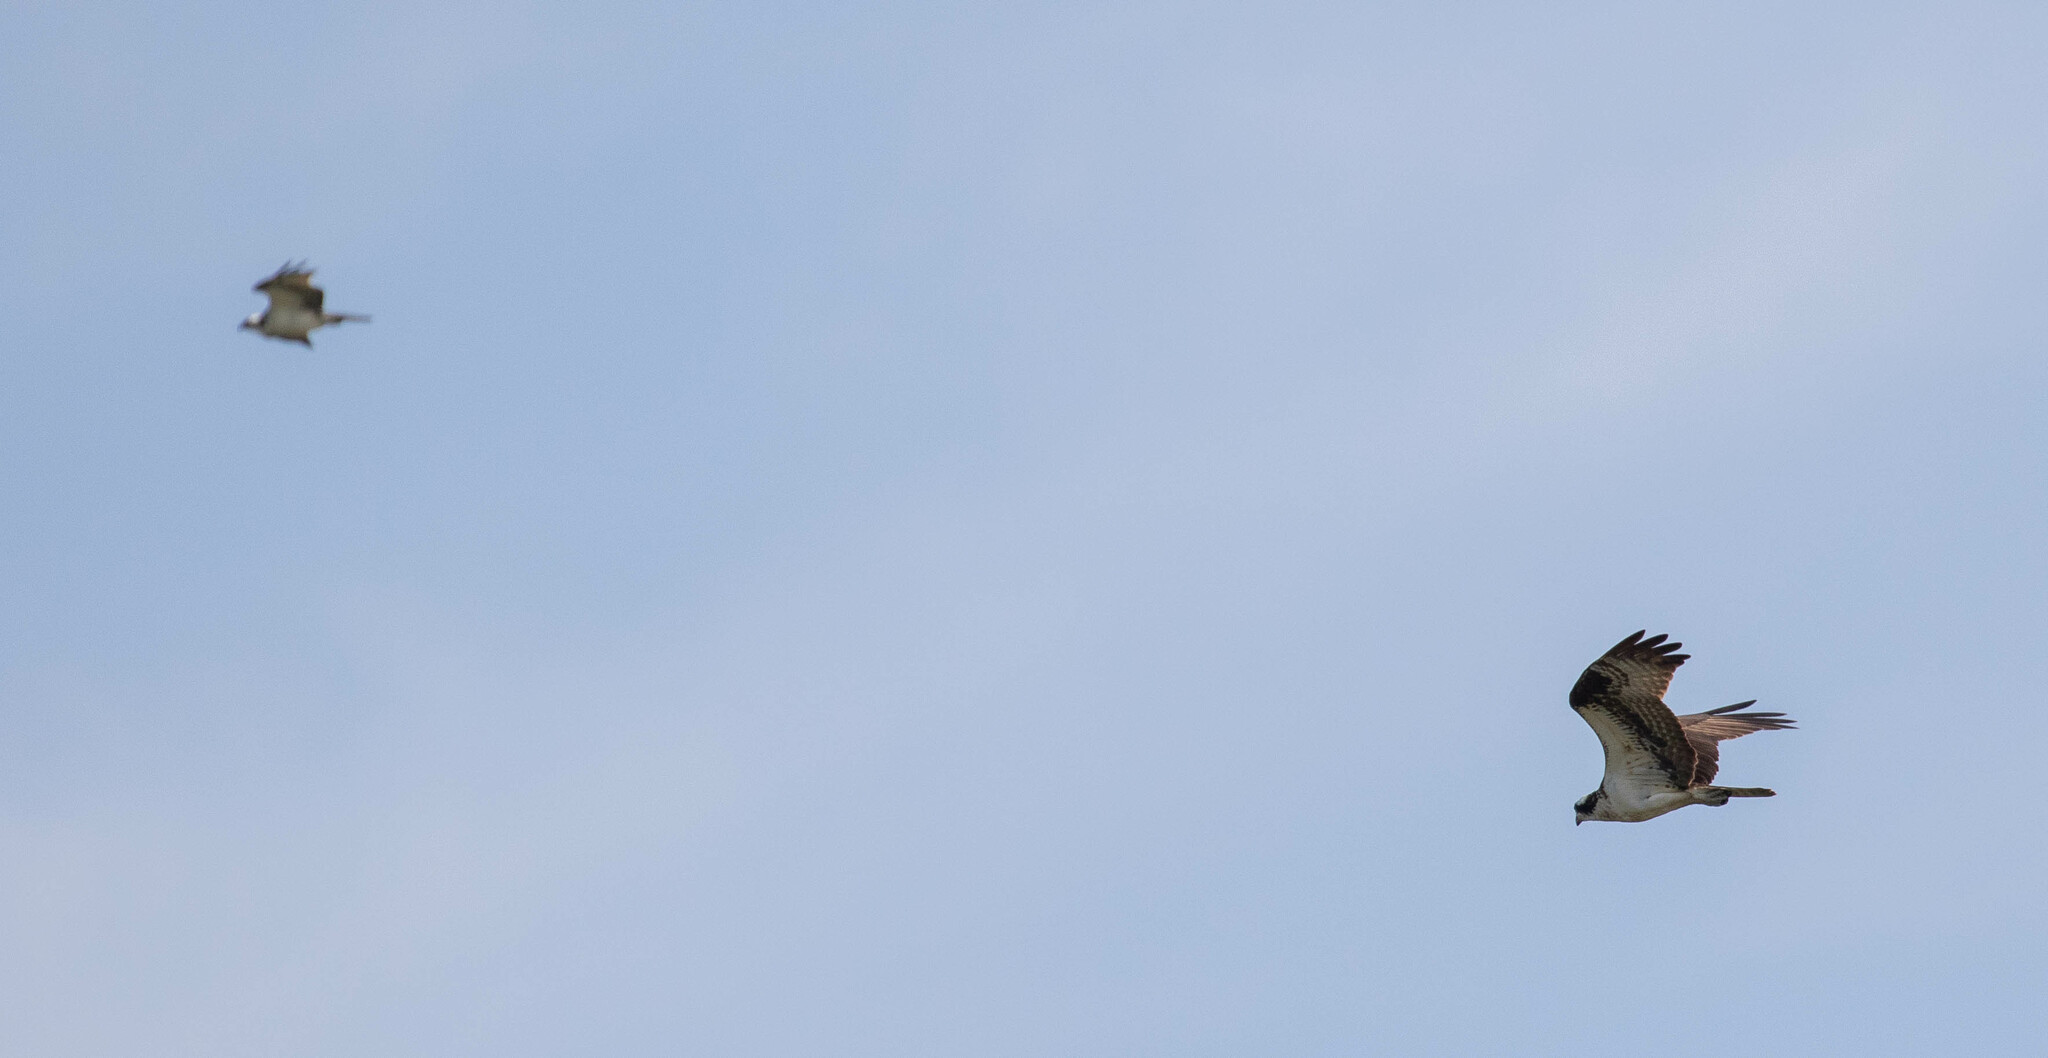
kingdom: Animalia
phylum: Chordata
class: Aves
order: Accipitriformes
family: Pandionidae
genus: Pandion
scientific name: Pandion haliaetus
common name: Osprey
